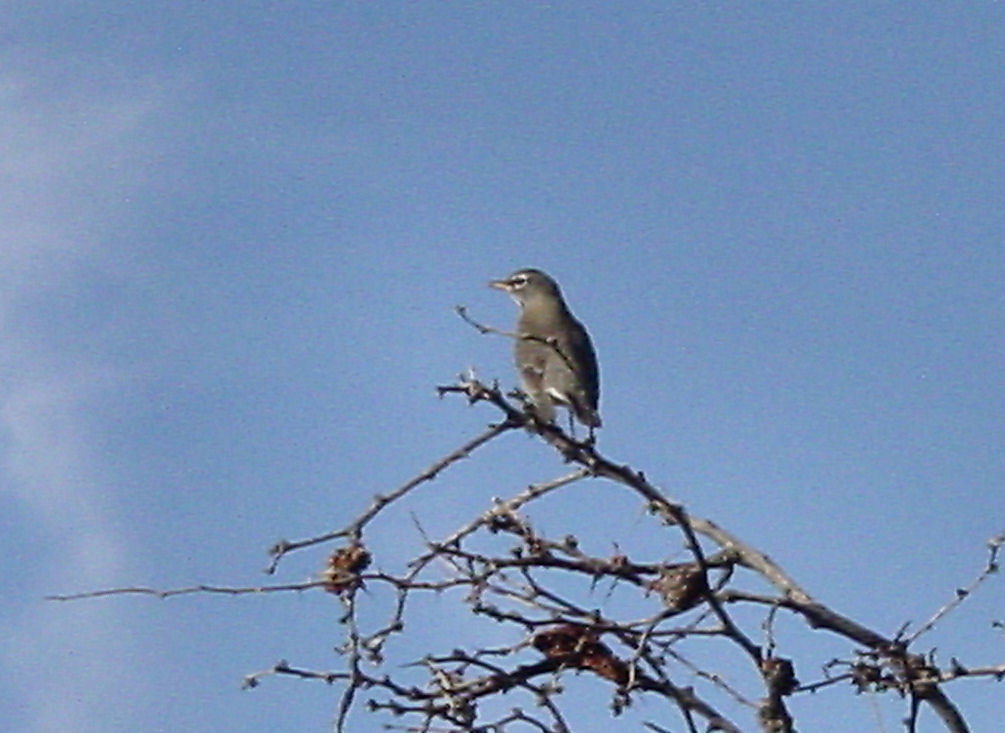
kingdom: Animalia
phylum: Chordata
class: Aves
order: Passeriformes
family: Turdidae
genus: Turdus
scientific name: Turdus migratorius
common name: American robin
